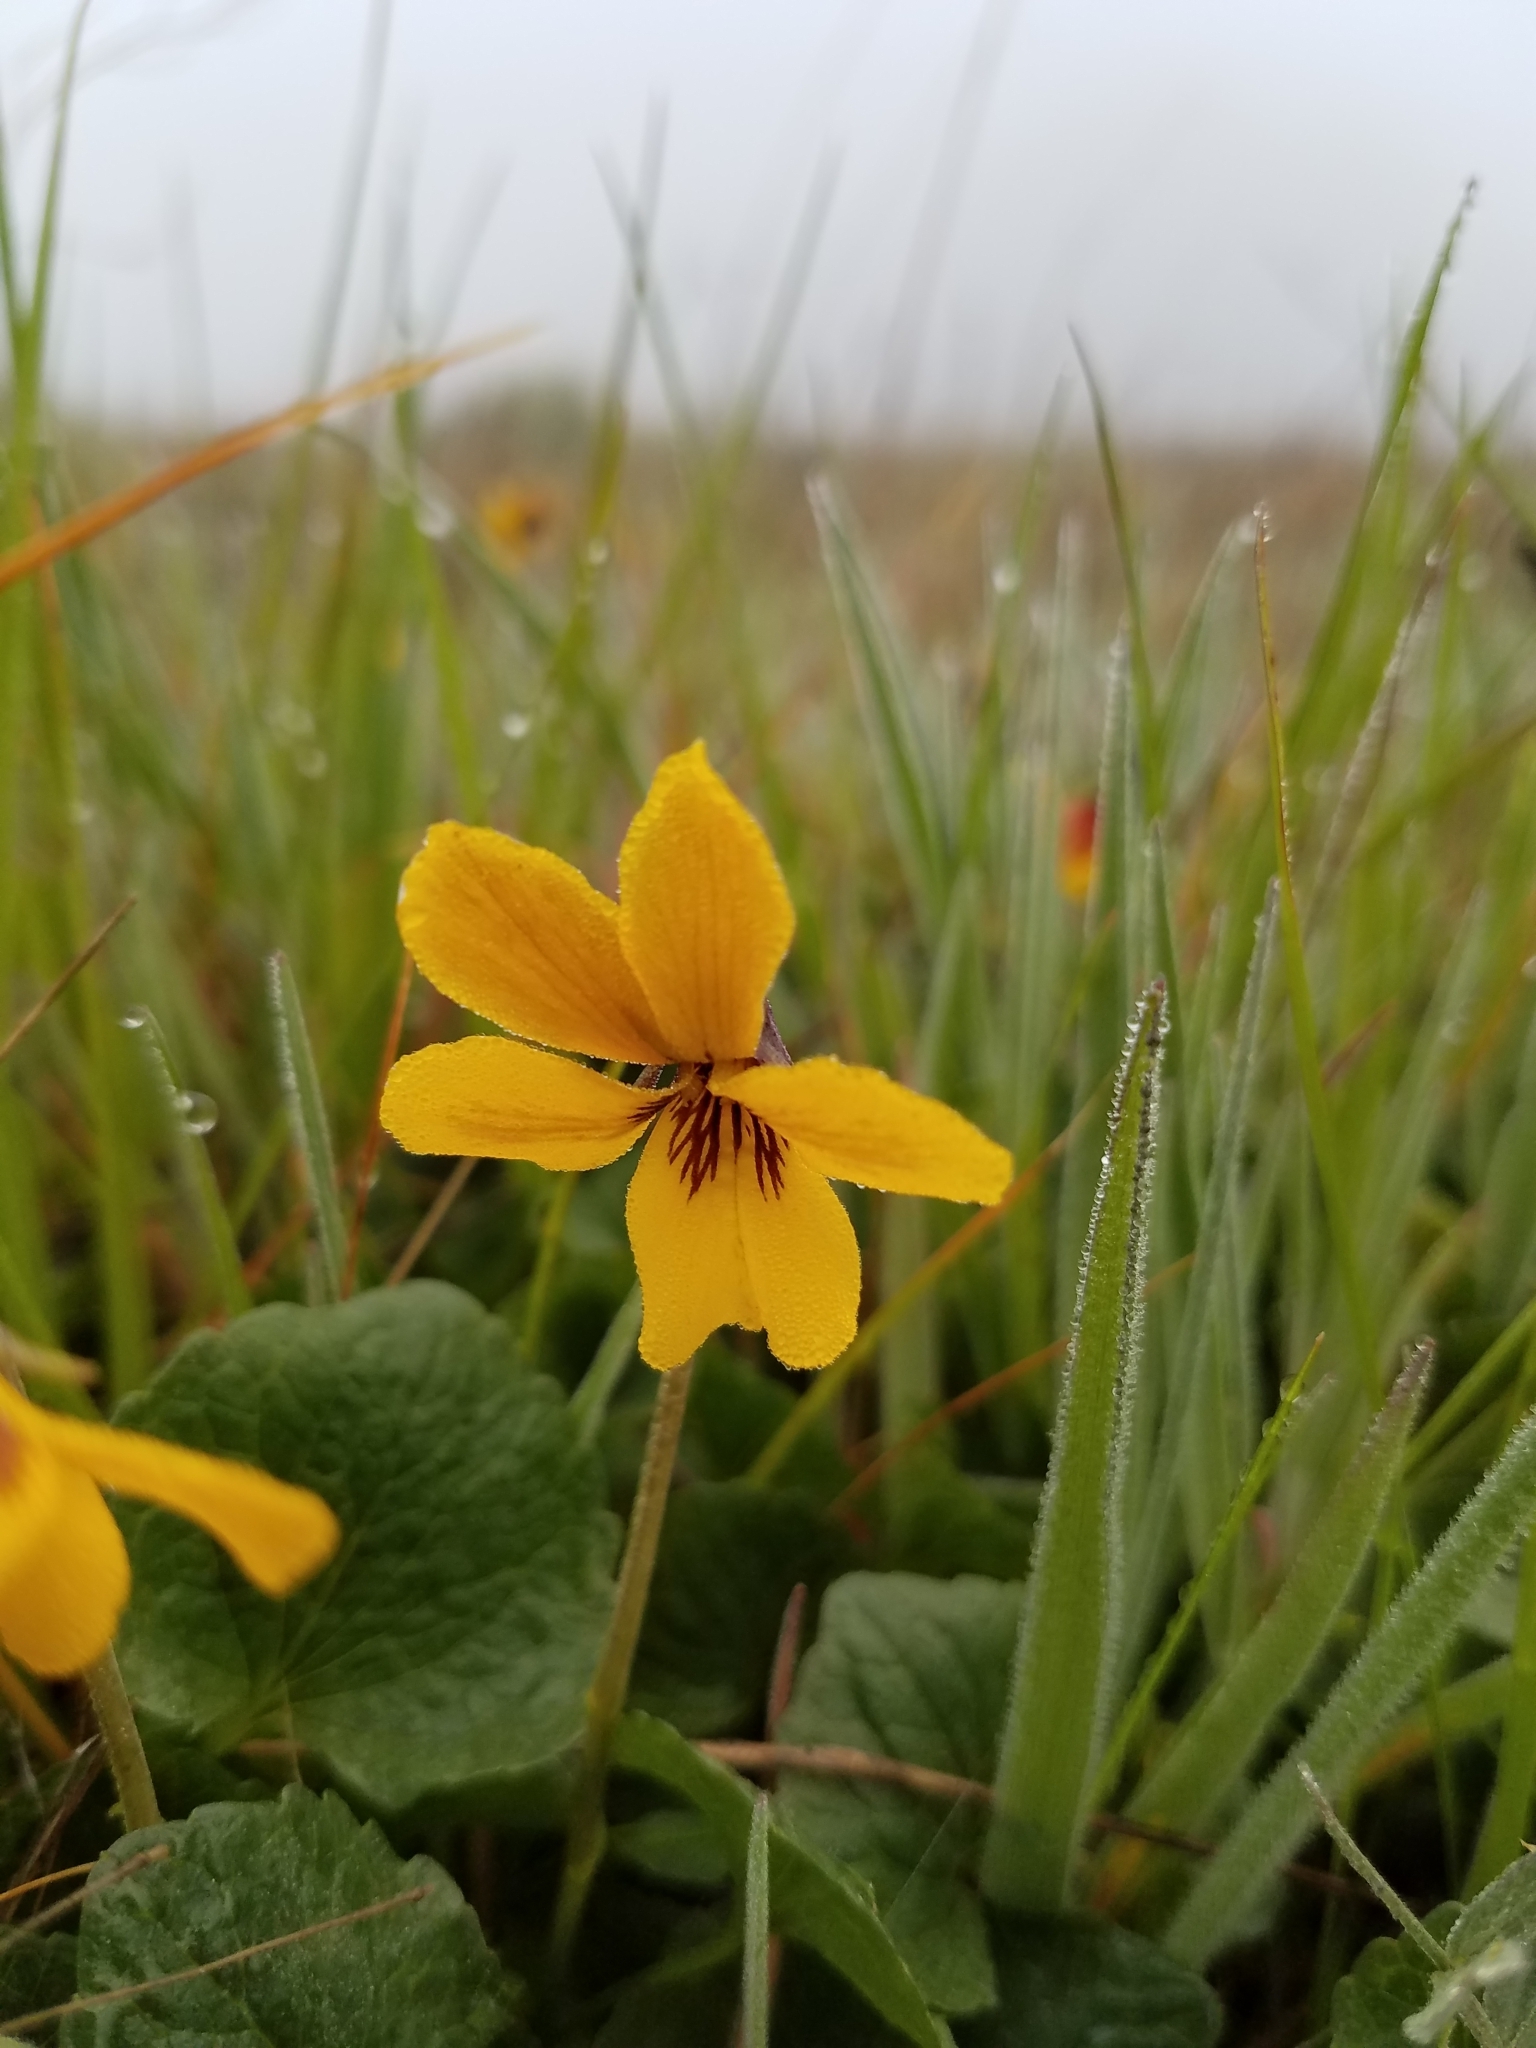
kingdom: Plantae
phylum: Tracheophyta
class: Magnoliopsida
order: Malpighiales
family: Violaceae
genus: Viola
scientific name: Viola pedunculata
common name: California golden violet
